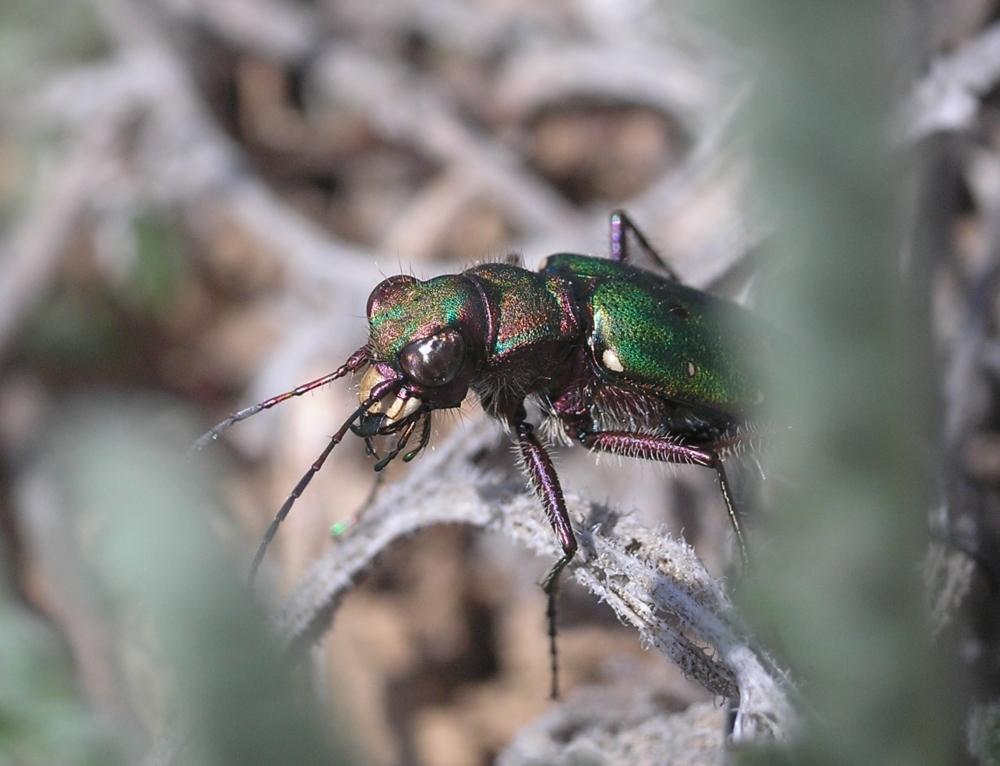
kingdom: Animalia
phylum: Arthropoda
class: Insecta
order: Coleoptera
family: Carabidae
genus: Cicindela
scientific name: Cicindela campestris
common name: Common tiger beetle
